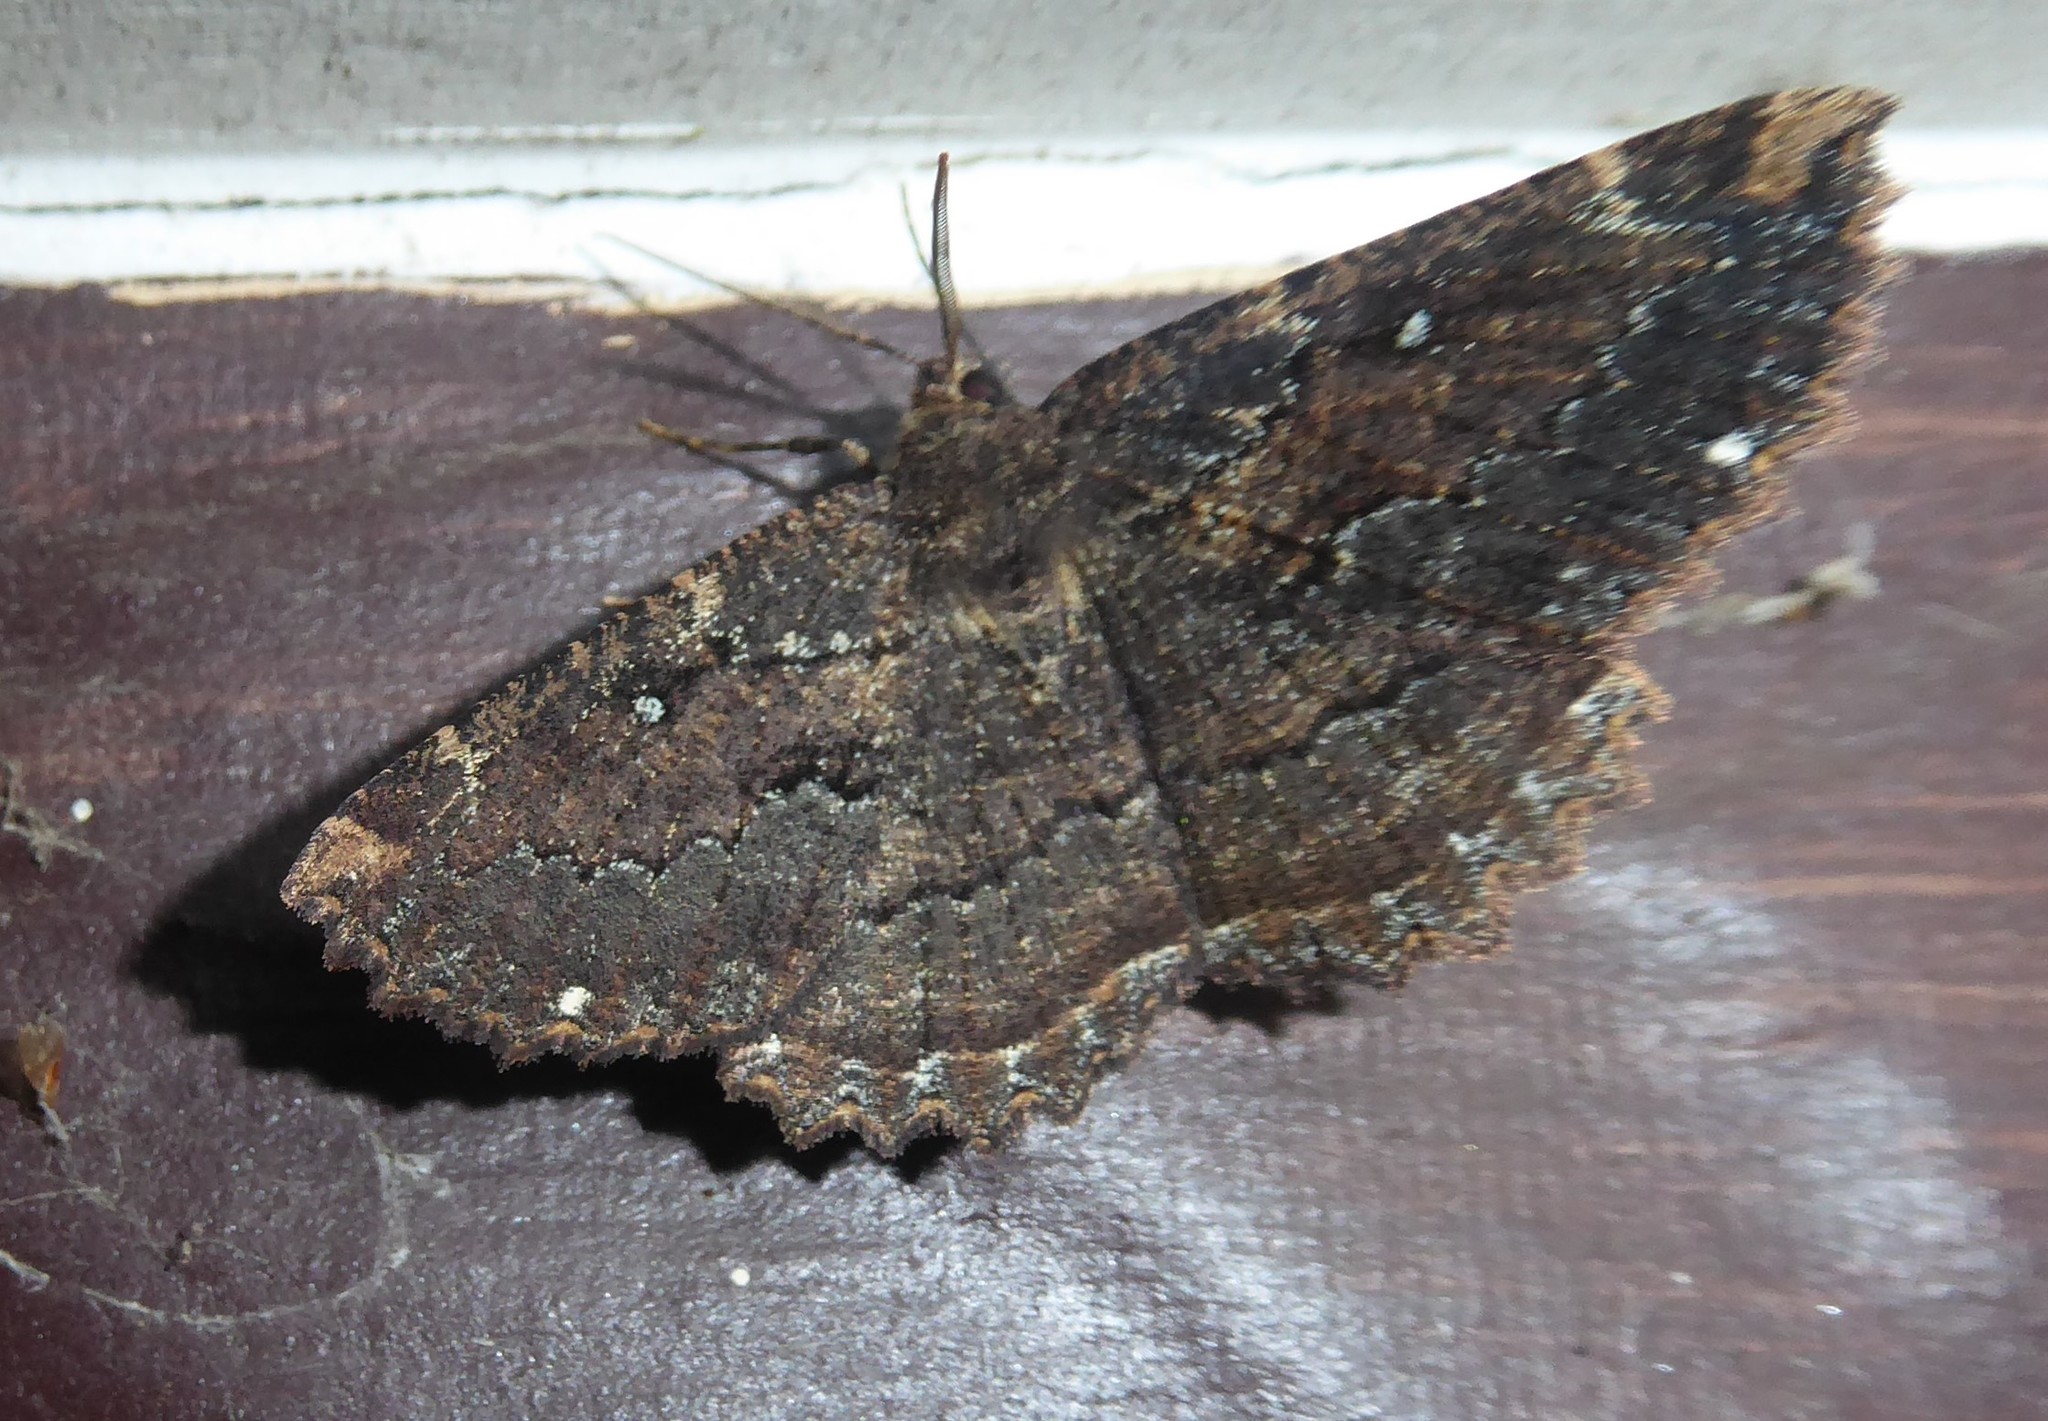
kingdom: Animalia
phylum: Arthropoda
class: Insecta
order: Lepidoptera
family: Geometridae
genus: Gellonia
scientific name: Gellonia dejectaria
